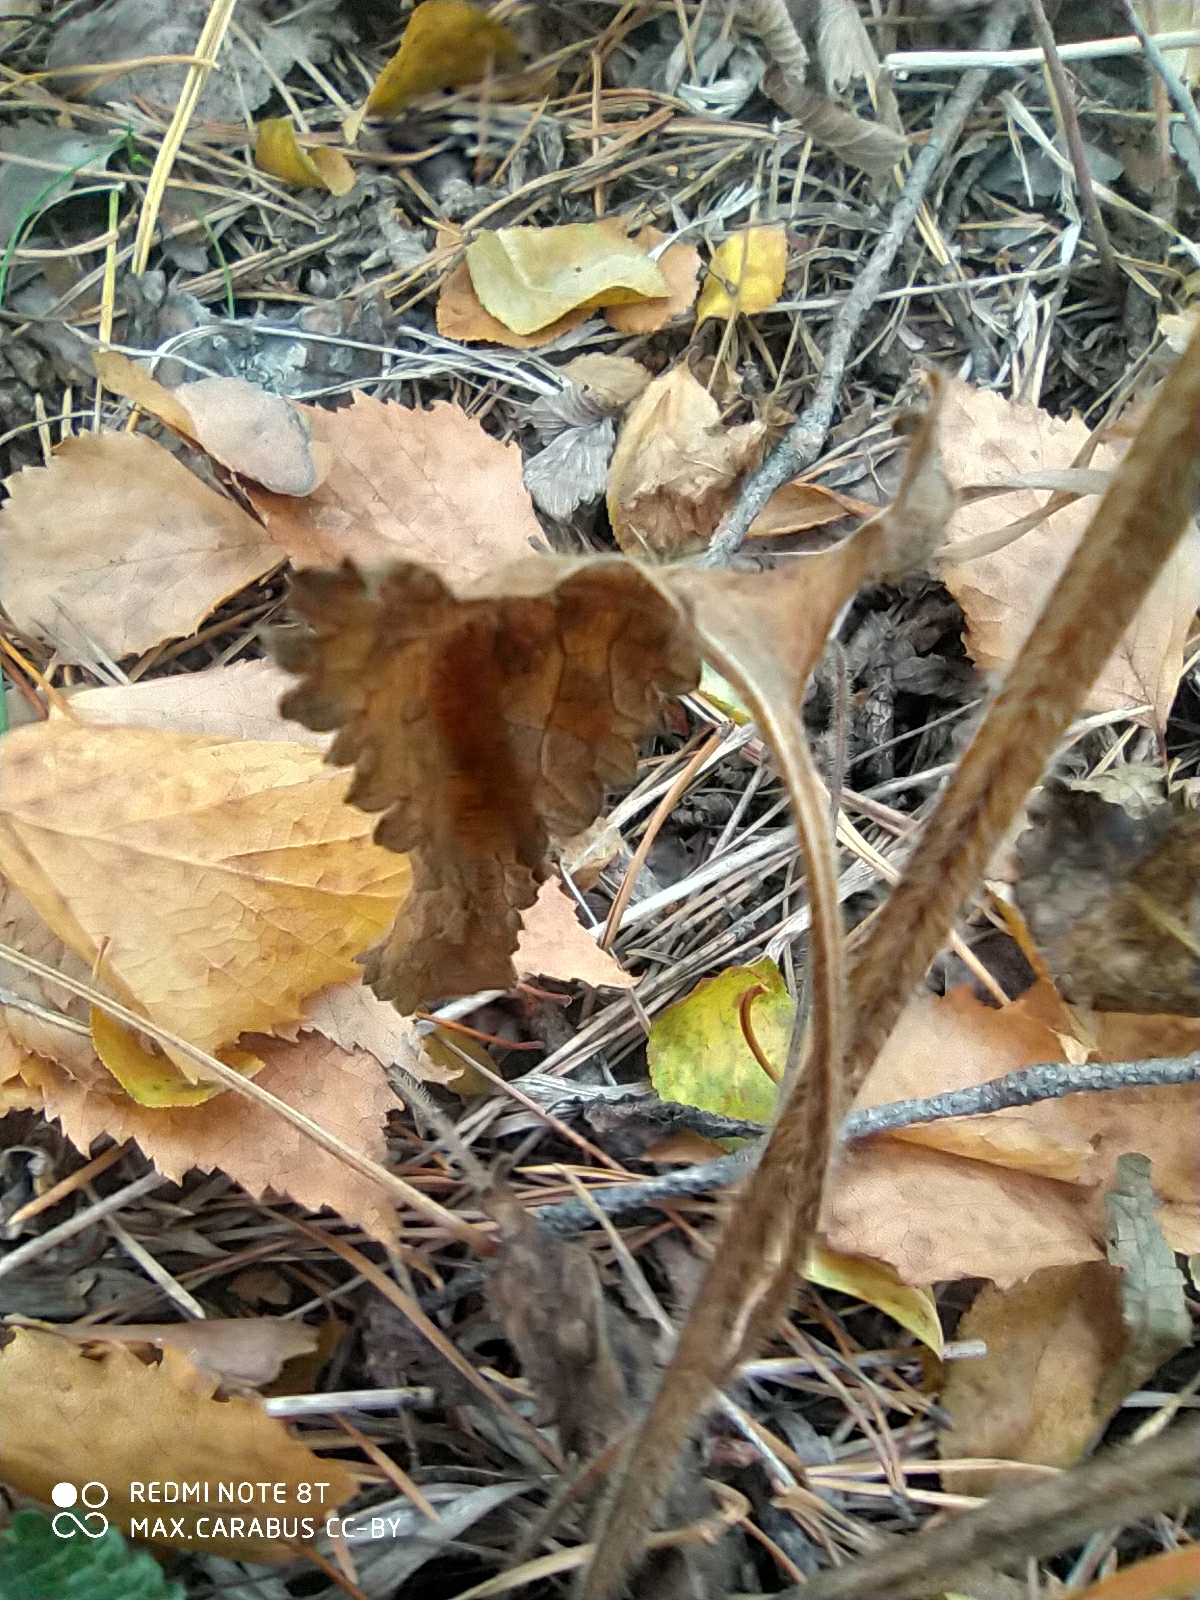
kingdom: Plantae
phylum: Tracheophyta
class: Magnoliopsida
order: Lamiales
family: Lamiaceae
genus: Betonica
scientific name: Betonica officinalis
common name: Bishop's-wort
